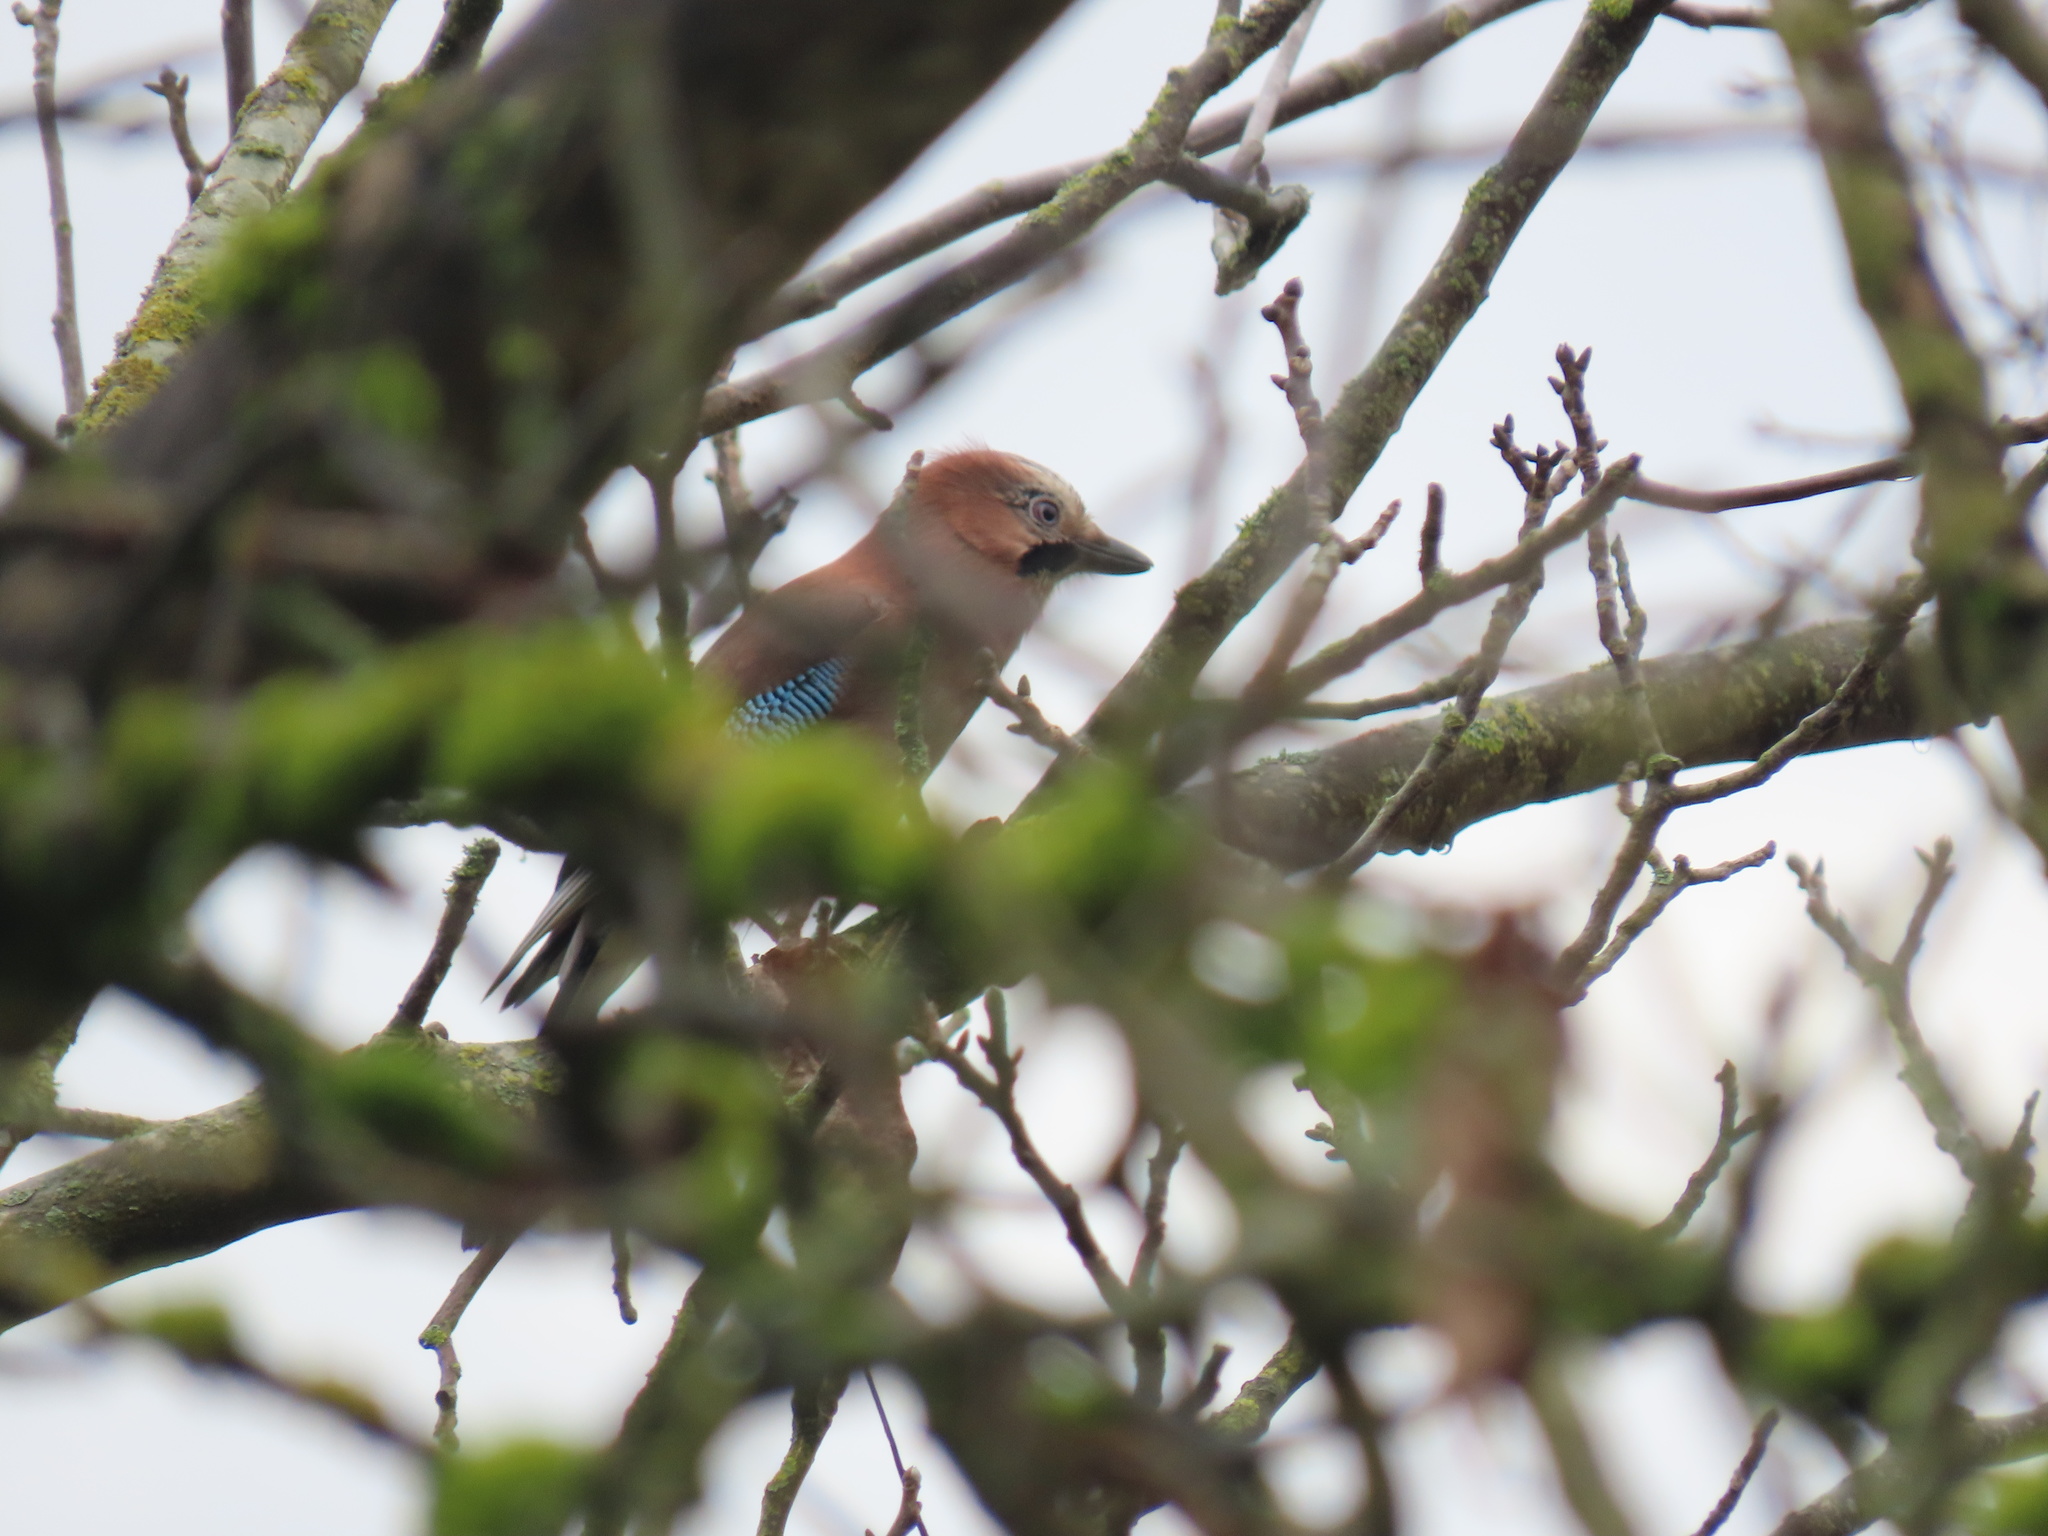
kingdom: Animalia
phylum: Chordata
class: Aves
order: Passeriformes
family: Corvidae
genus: Garrulus
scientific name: Garrulus glandarius
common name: Eurasian jay
